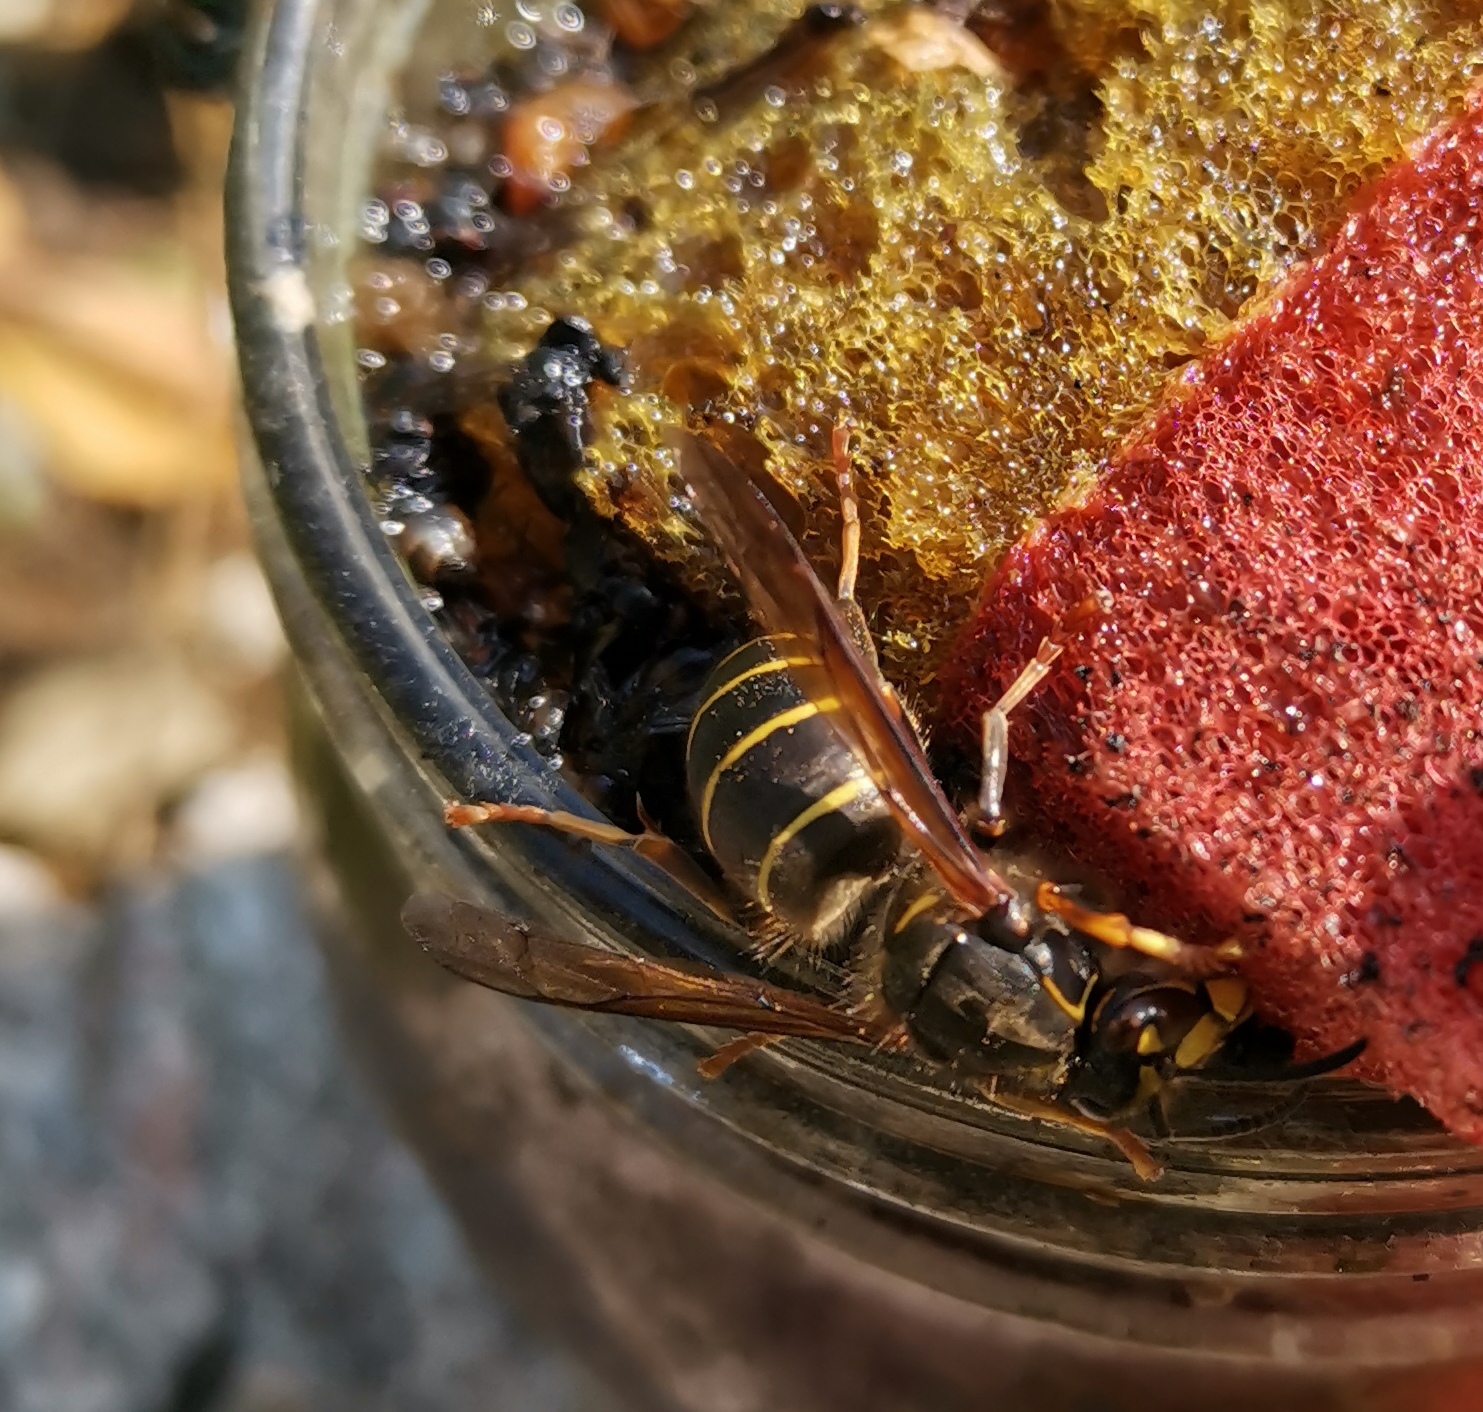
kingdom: Animalia
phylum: Arthropoda
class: Insecta
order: Hymenoptera
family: Vespidae
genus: Dolichovespula
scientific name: Dolichovespula media
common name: Median wasp
